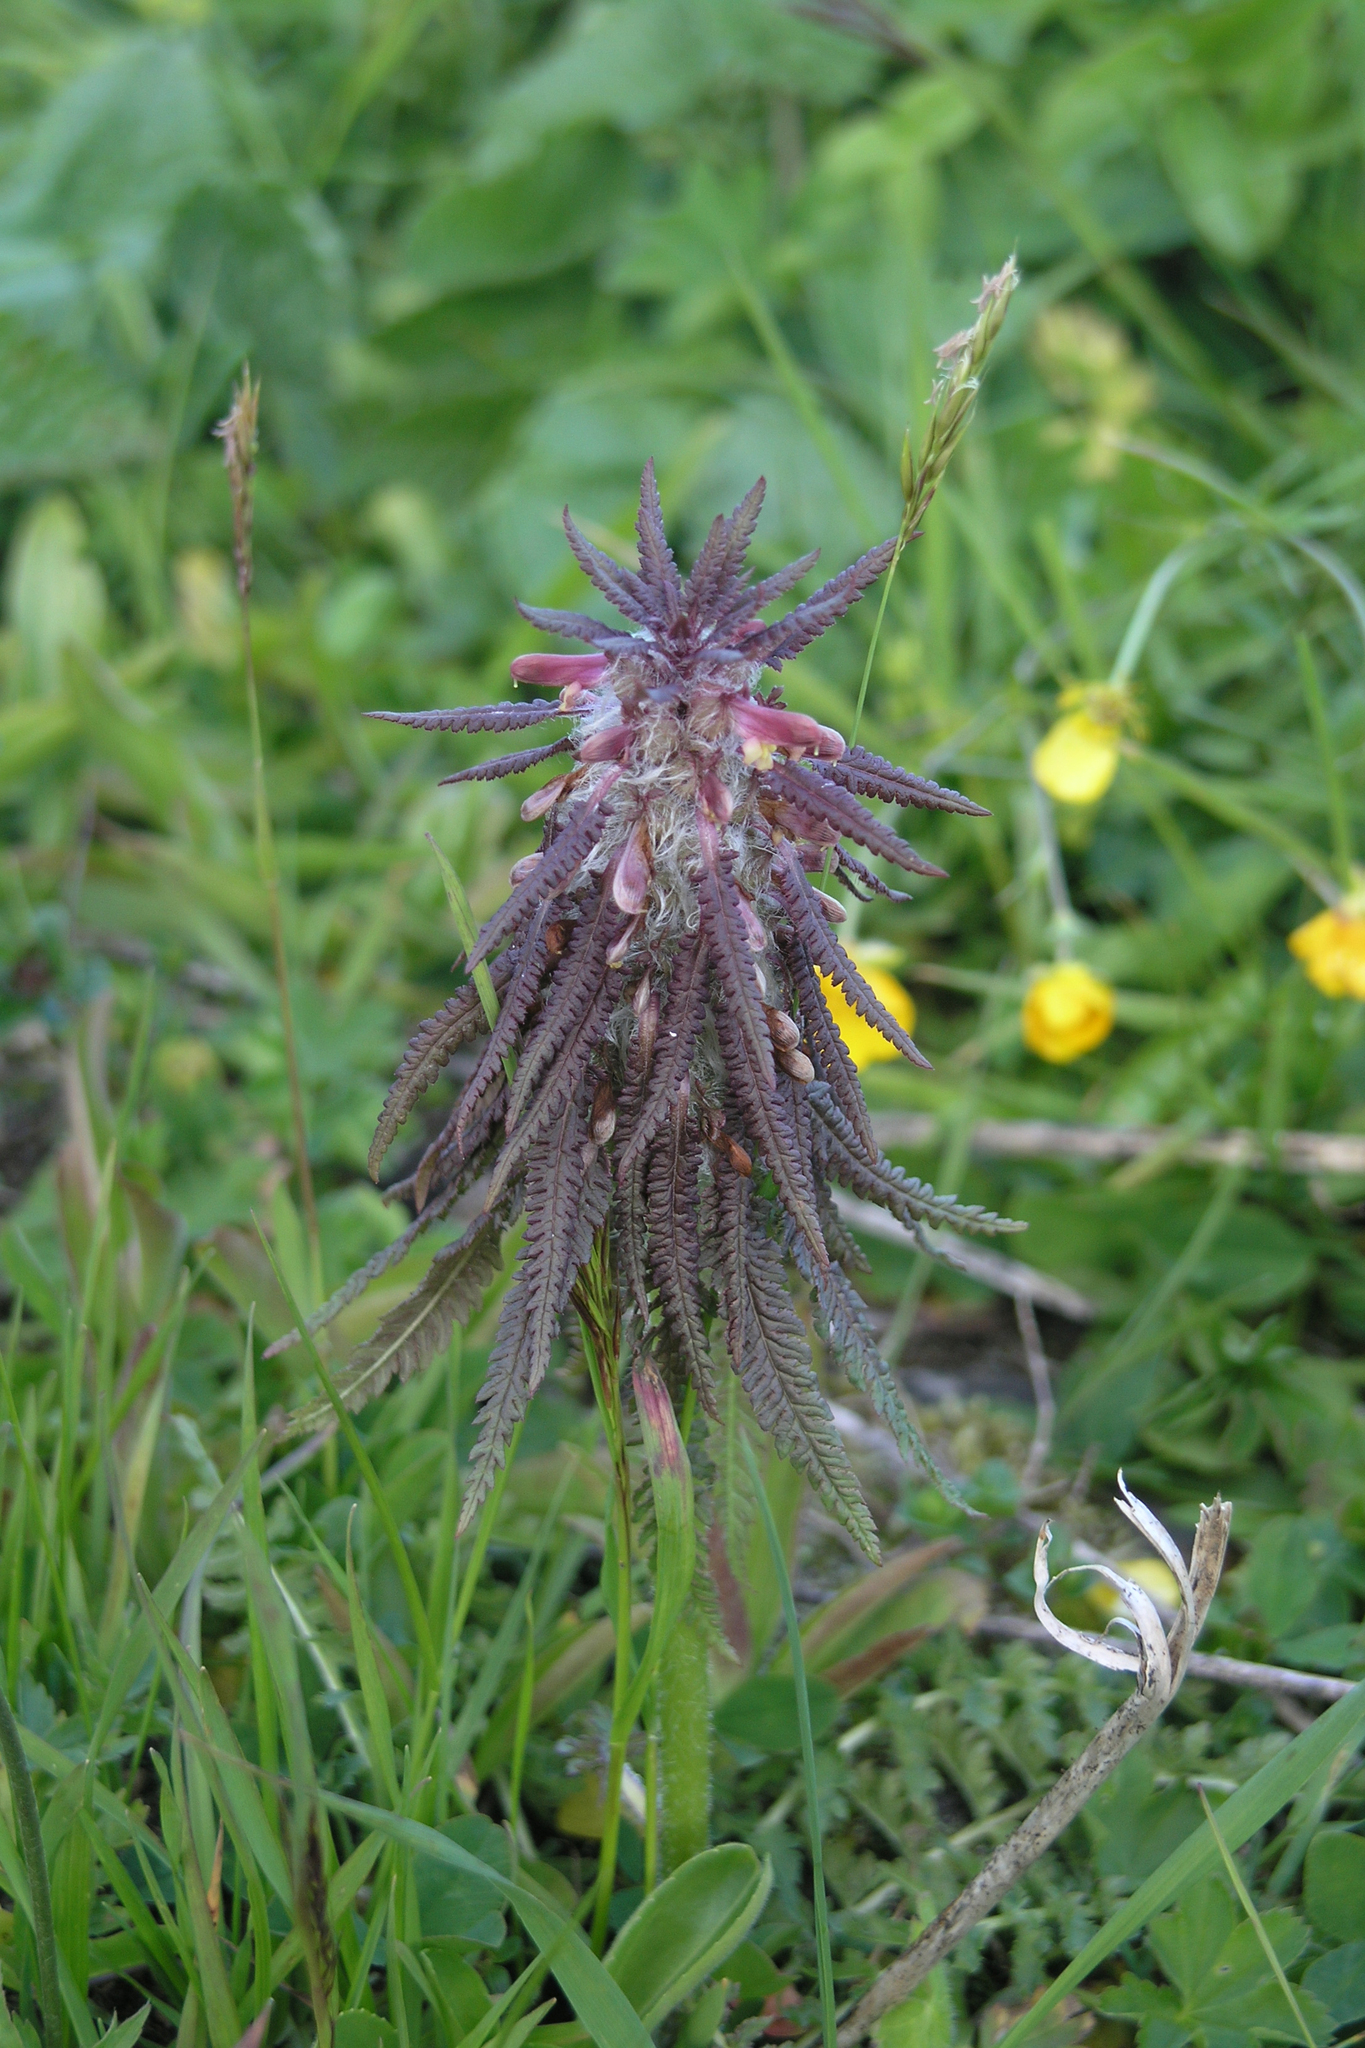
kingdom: Plantae
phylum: Tracheophyta
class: Magnoliopsida
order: Lamiales
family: Orobanchaceae
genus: Pedicularis
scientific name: Pedicularis wilhelmsiana
